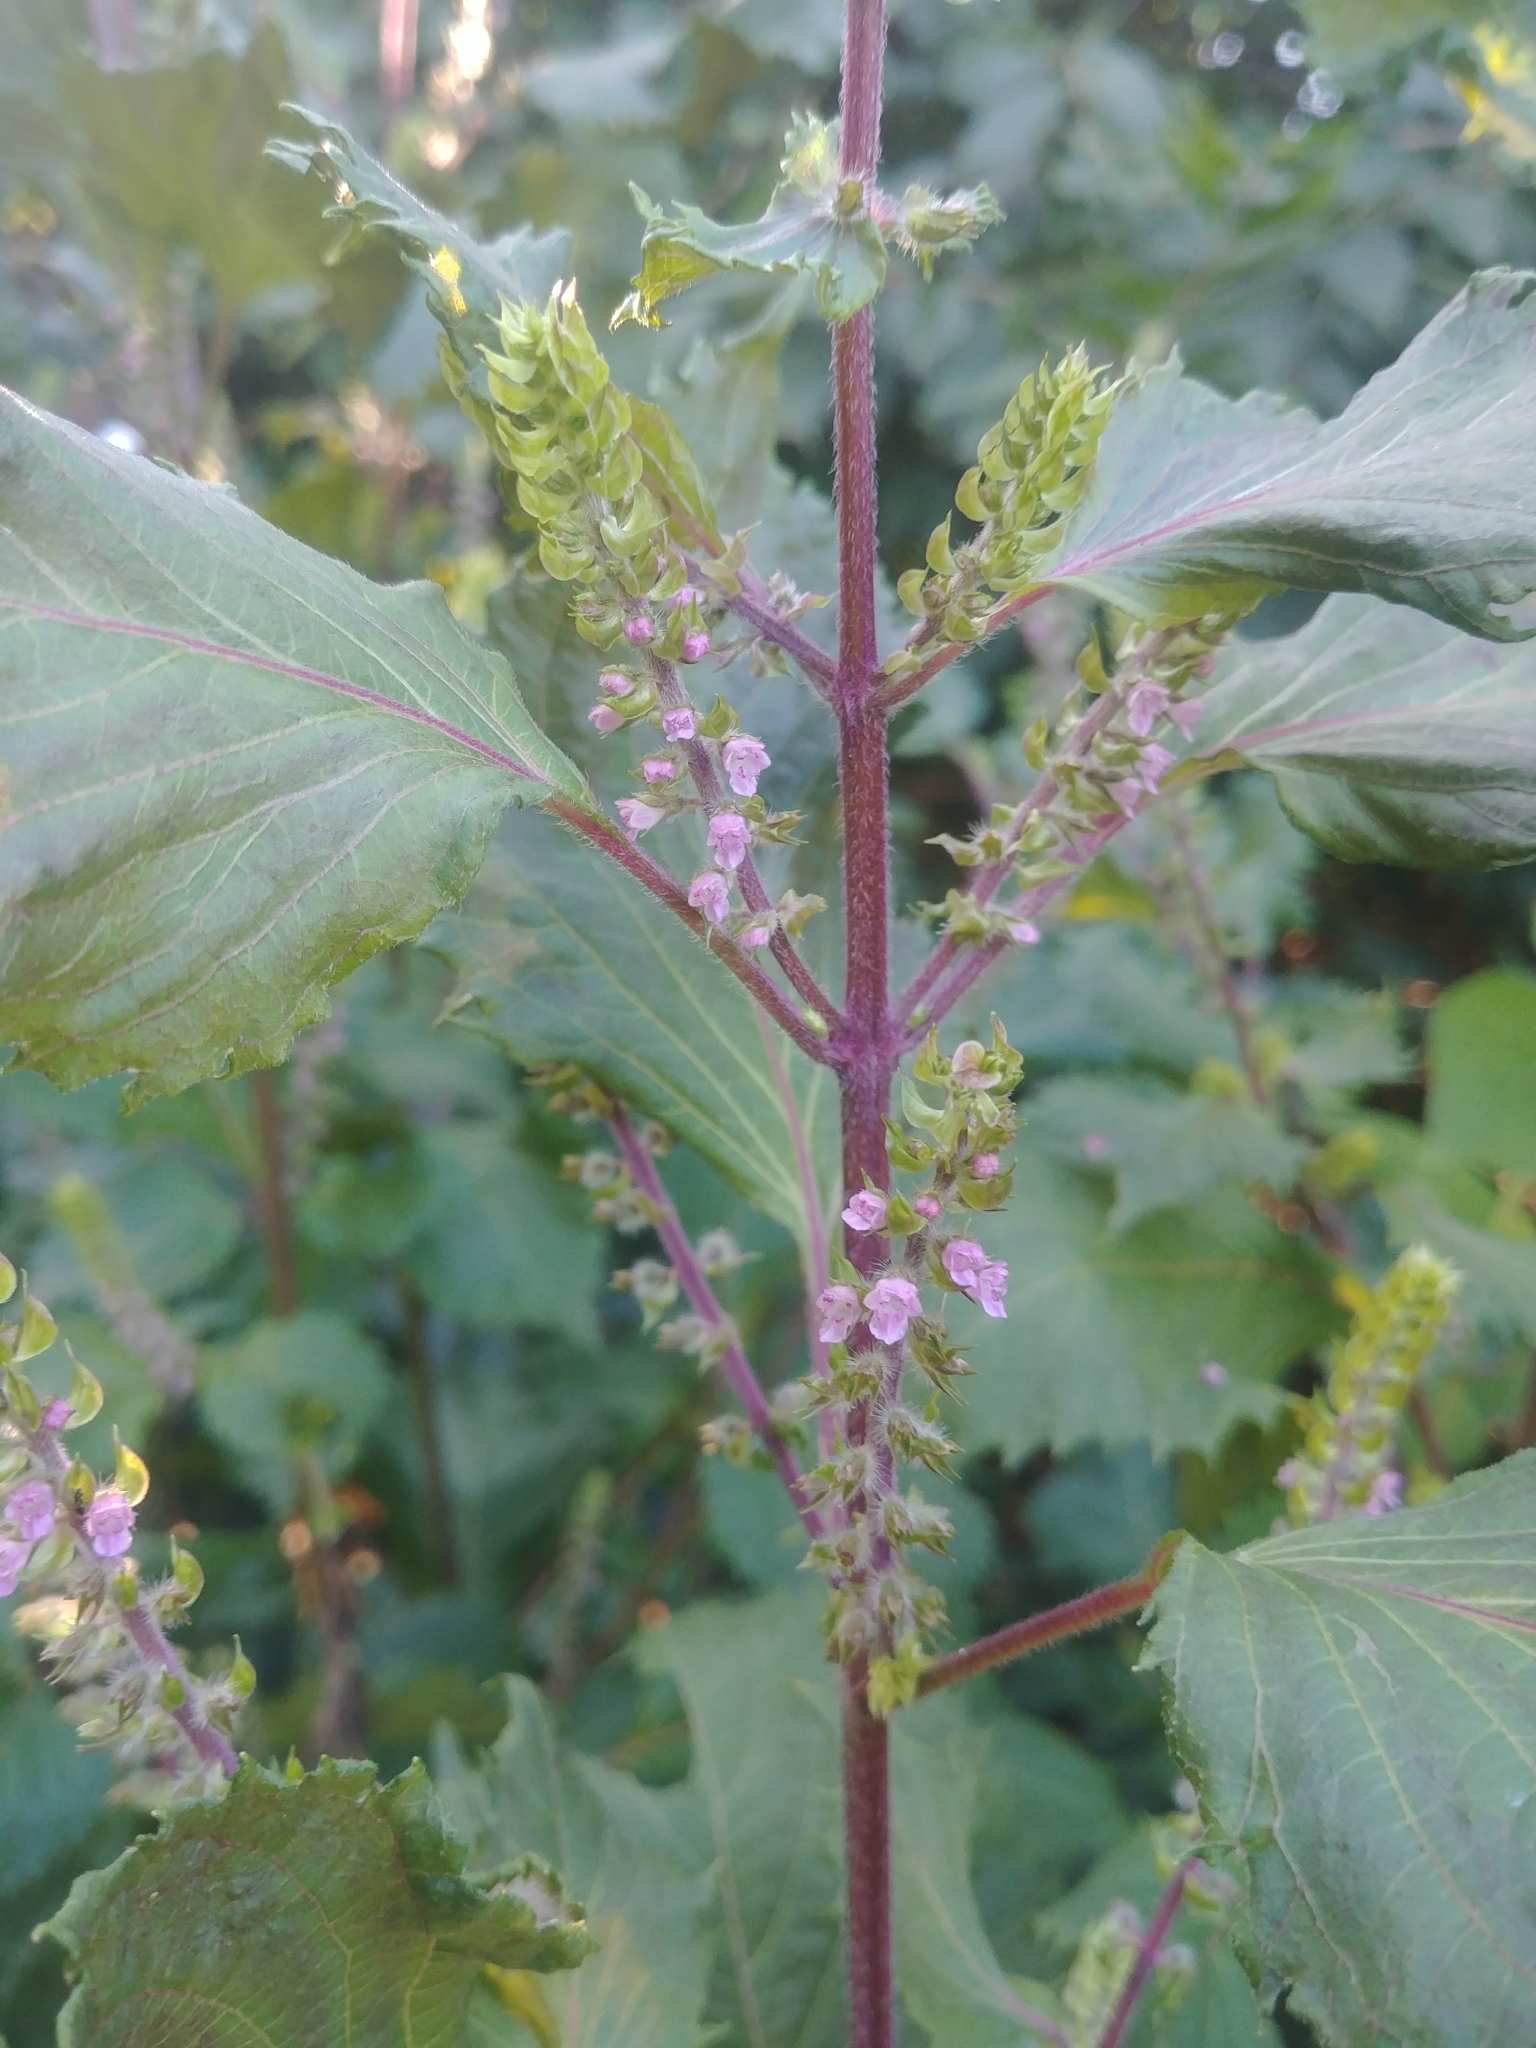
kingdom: Plantae
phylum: Tracheophyta
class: Magnoliopsida
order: Lamiales
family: Lamiaceae
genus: Perilla
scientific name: Perilla frutescens
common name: Perilla
